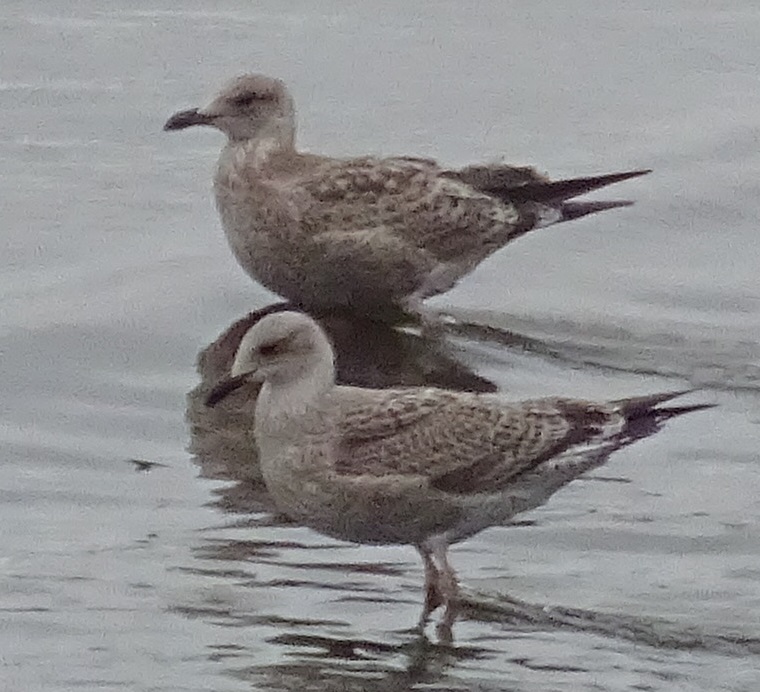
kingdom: Animalia
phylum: Chordata
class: Aves
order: Charadriiformes
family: Laridae
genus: Larus
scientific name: Larus
